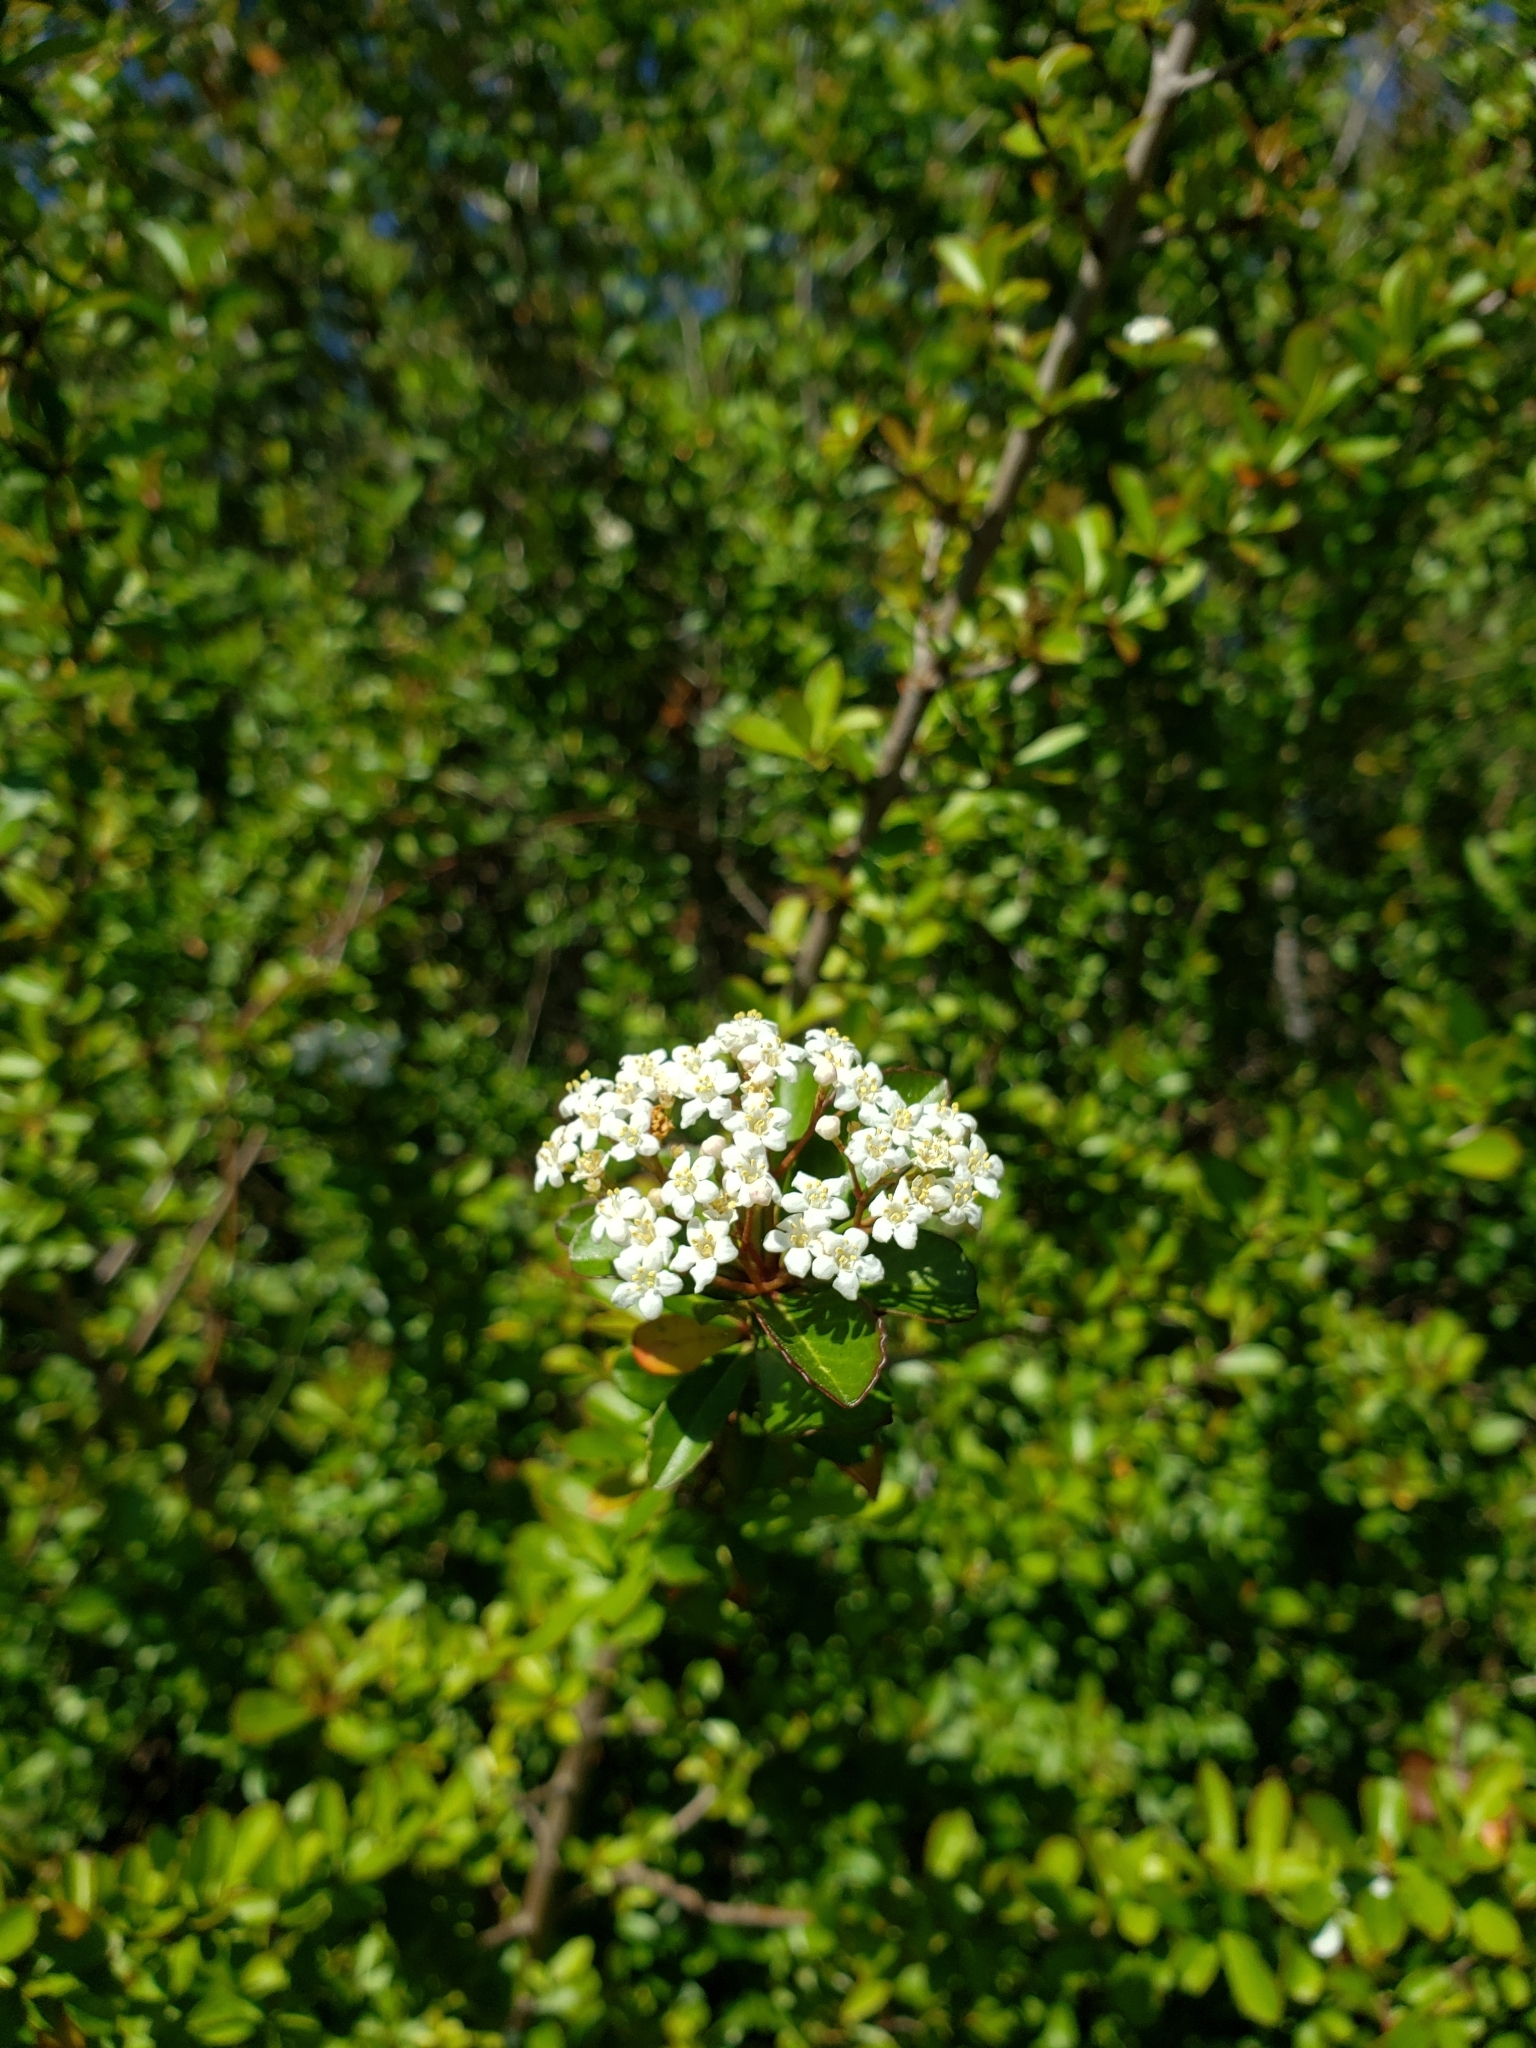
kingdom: Plantae
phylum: Tracheophyta
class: Magnoliopsida
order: Dipsacales
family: Viburnaceae
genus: Viburnum
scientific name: Viburnum obovatum
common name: Walter's viburnum
